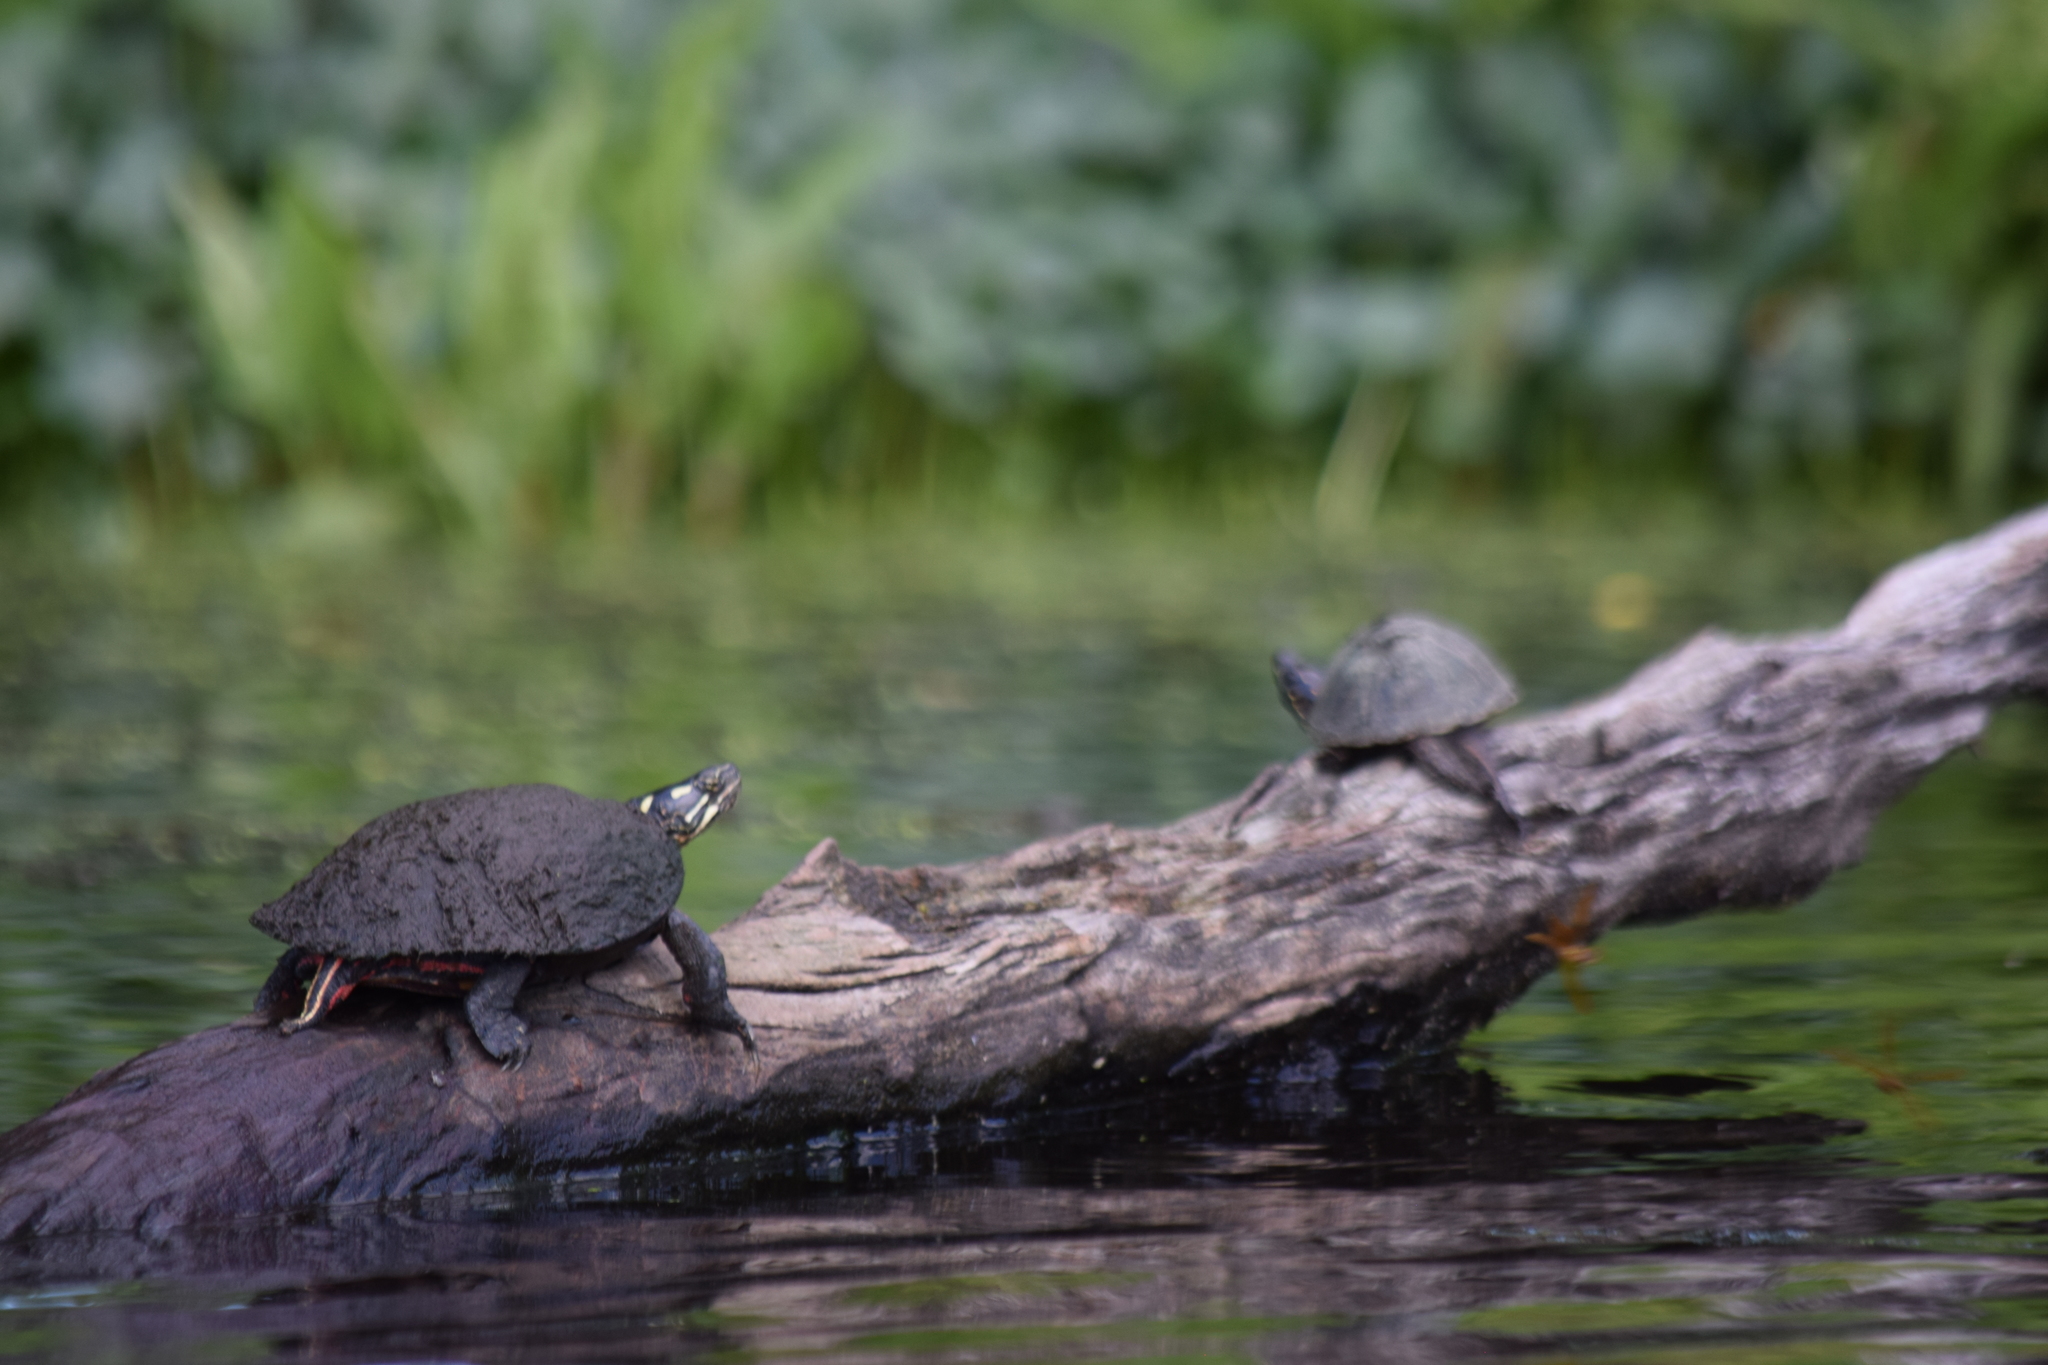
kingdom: Animalia
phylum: Chordata
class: Testudines
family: Kinosternidae
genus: Sternotherus
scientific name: Sternotherus odoratus
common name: Common musk turtle
